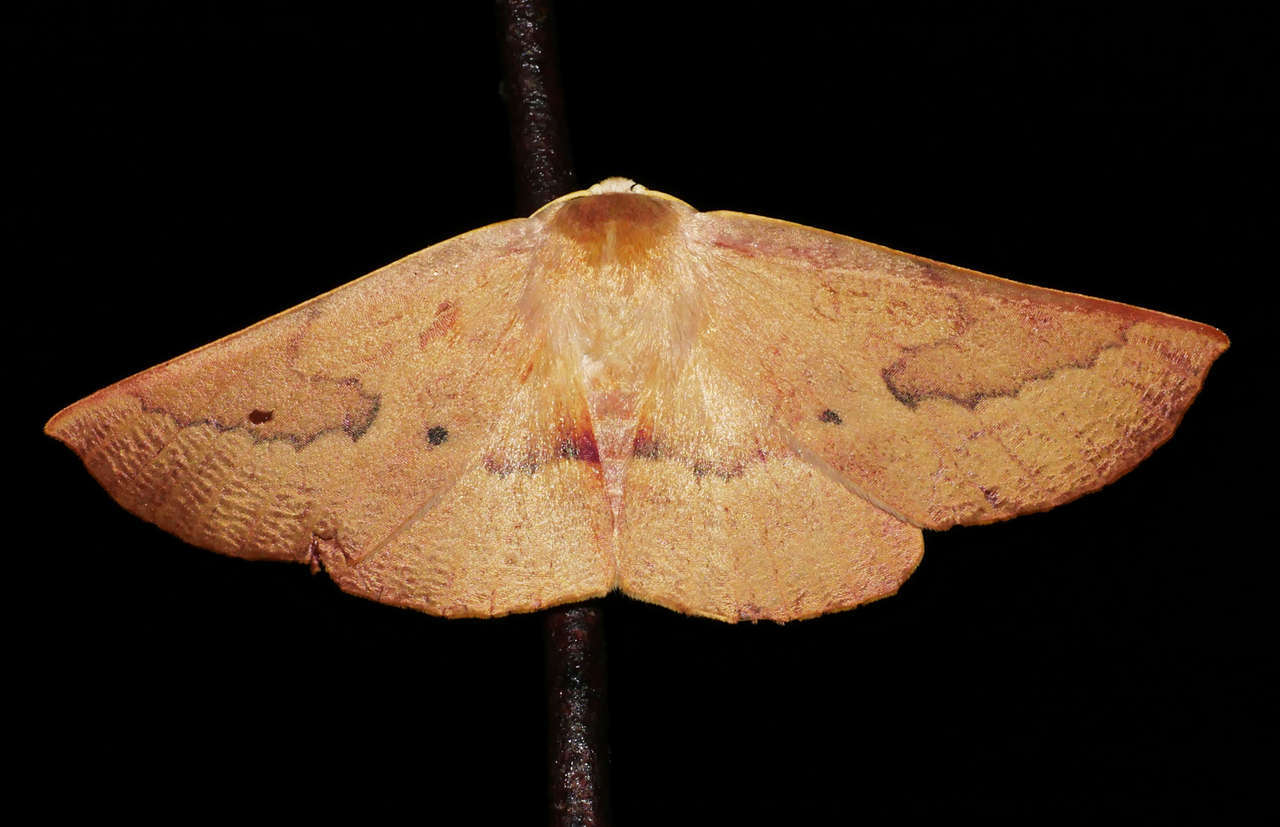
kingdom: Animalia
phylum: Arthropoda
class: Insecta
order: Lepidoptera
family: Geometridae
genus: Monoctenia
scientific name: Monoctenia falernaria
